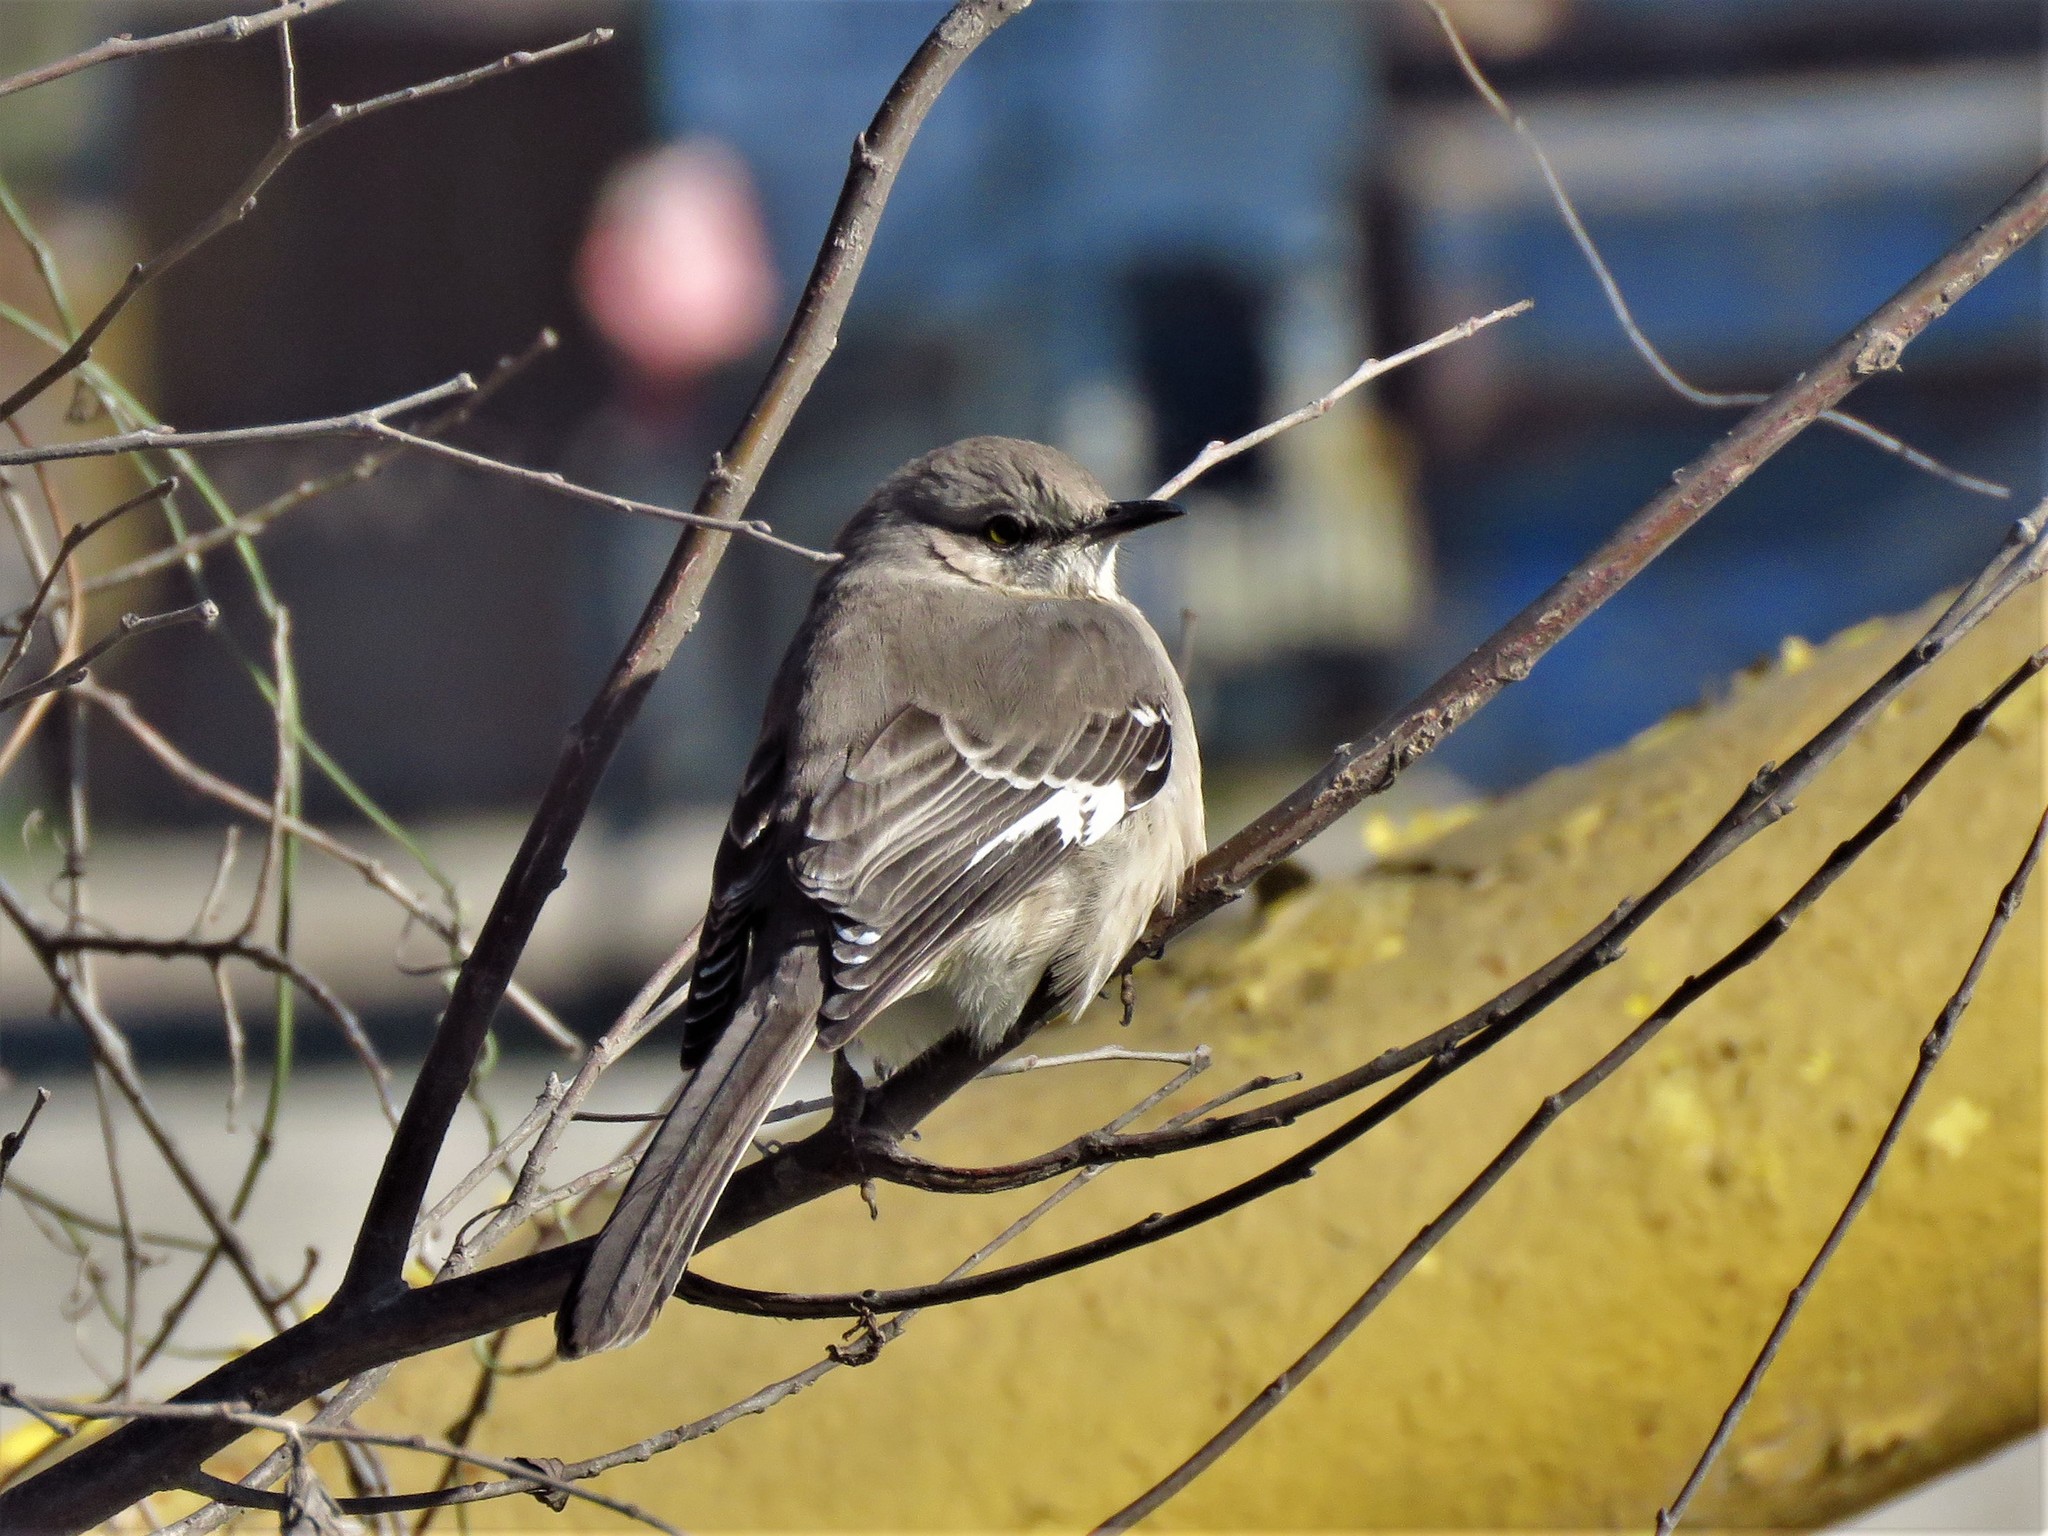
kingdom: Animalia
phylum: Chordata
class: Aves
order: Passeriformes
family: Mimidae
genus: Mimus
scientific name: Mimus polyglottos
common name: Northern mockingbird
